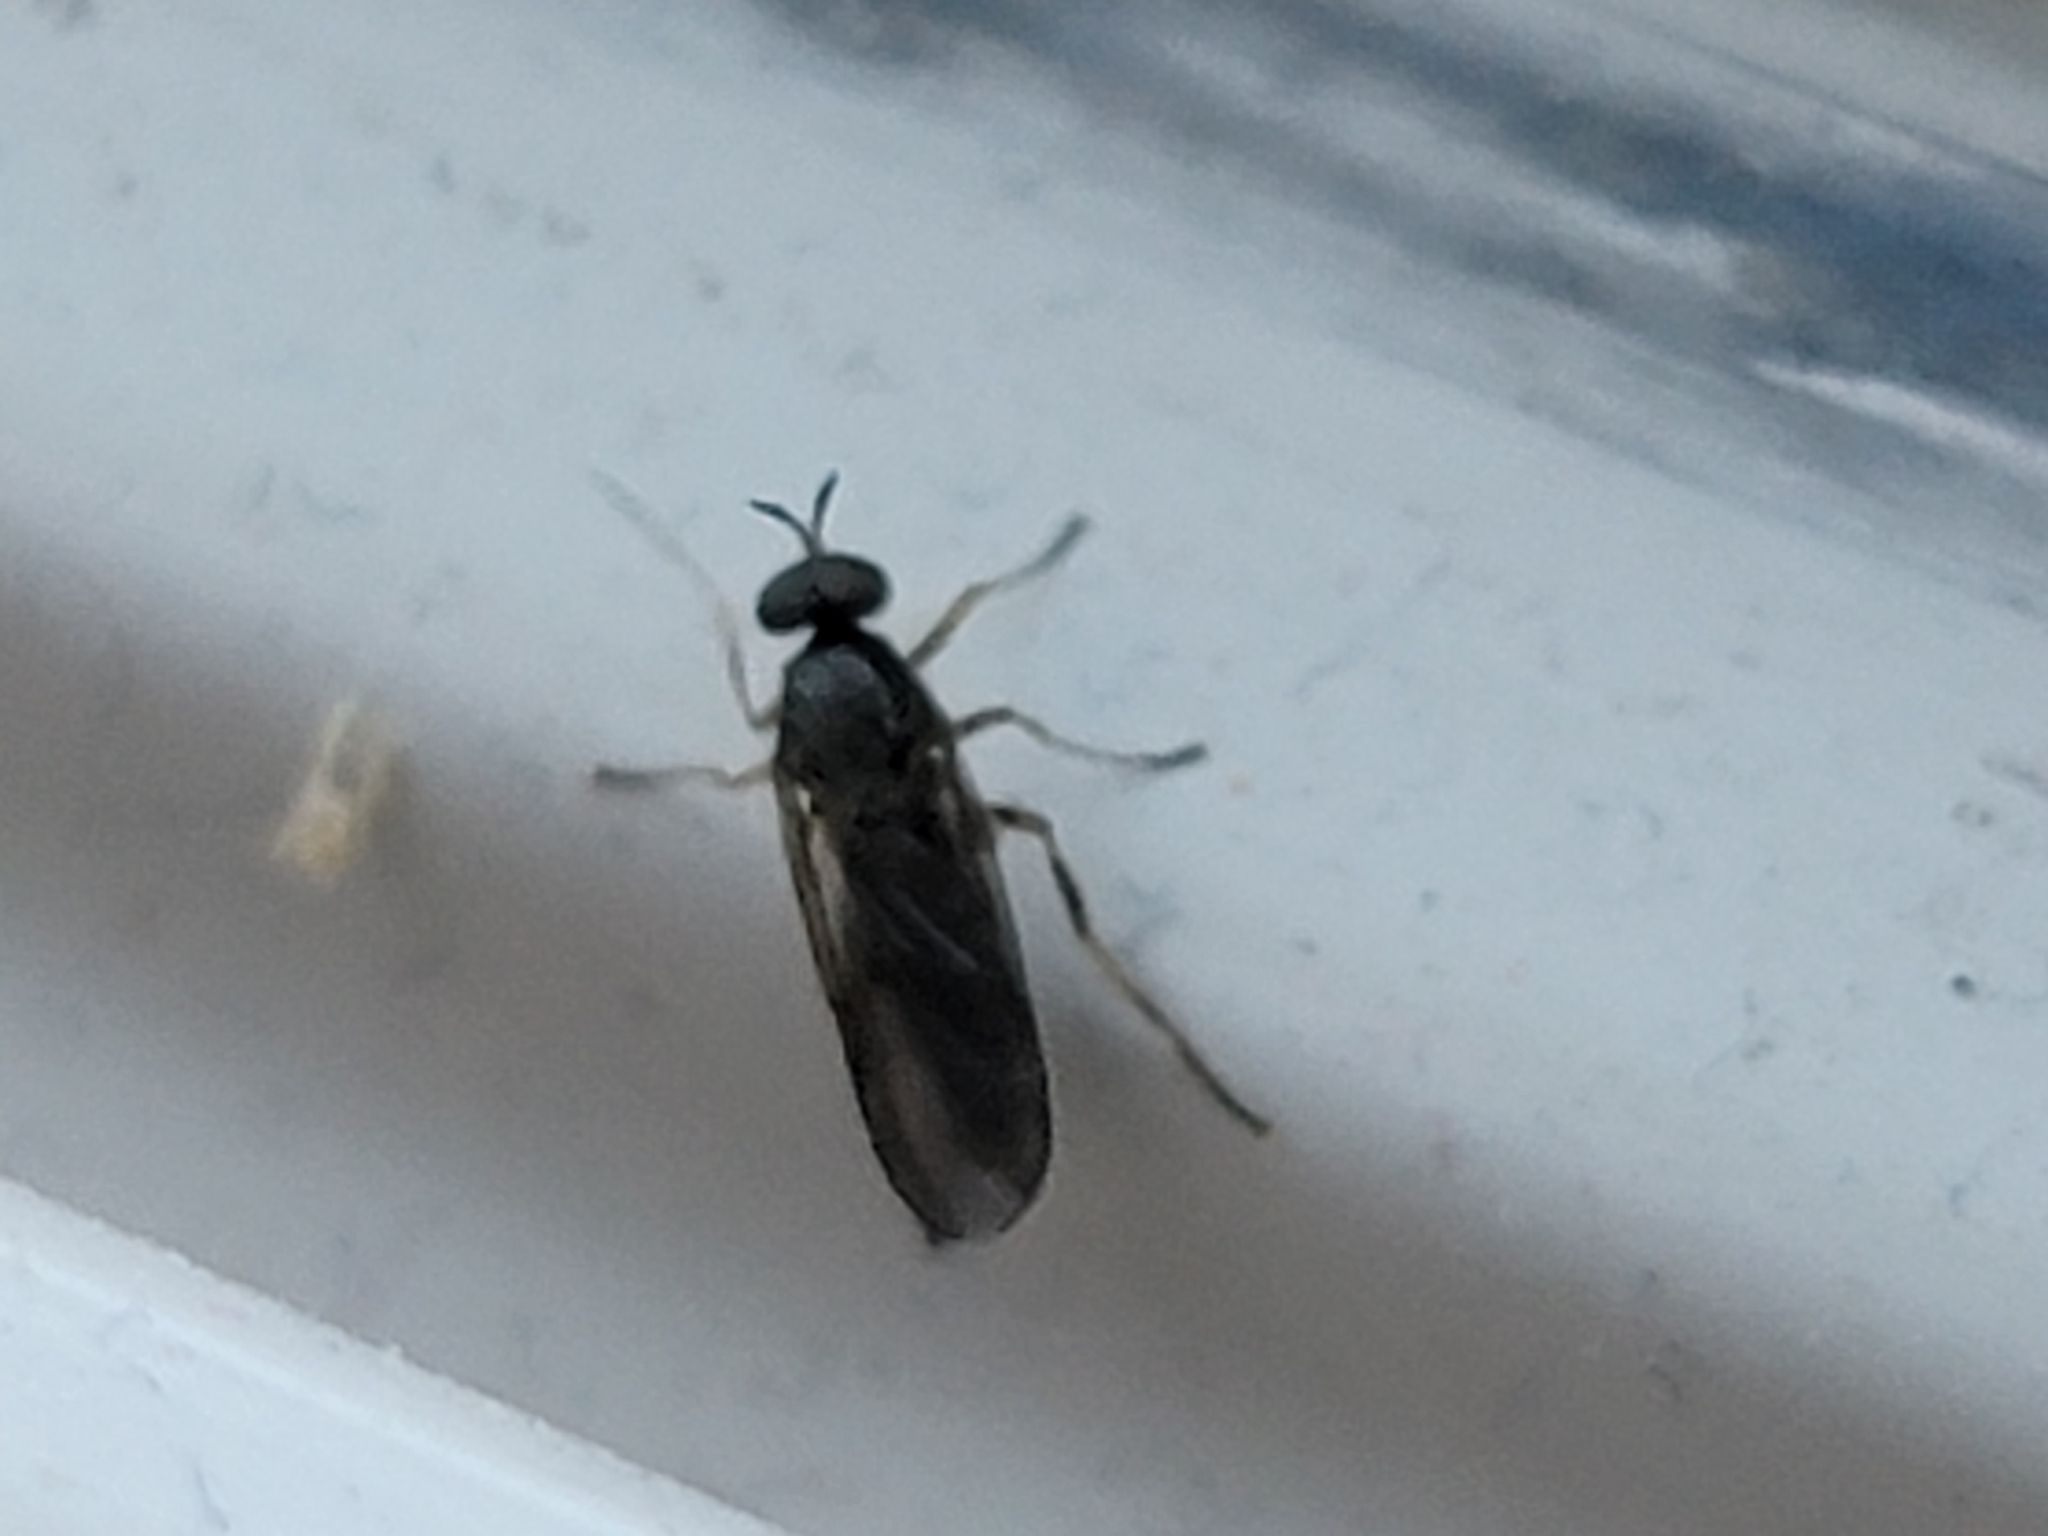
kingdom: Animalia
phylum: Arthropoda
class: Insecta
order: Diptera
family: Stratiomyidae
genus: Inopus
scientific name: Inopus rubriceps
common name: Soldier fly
